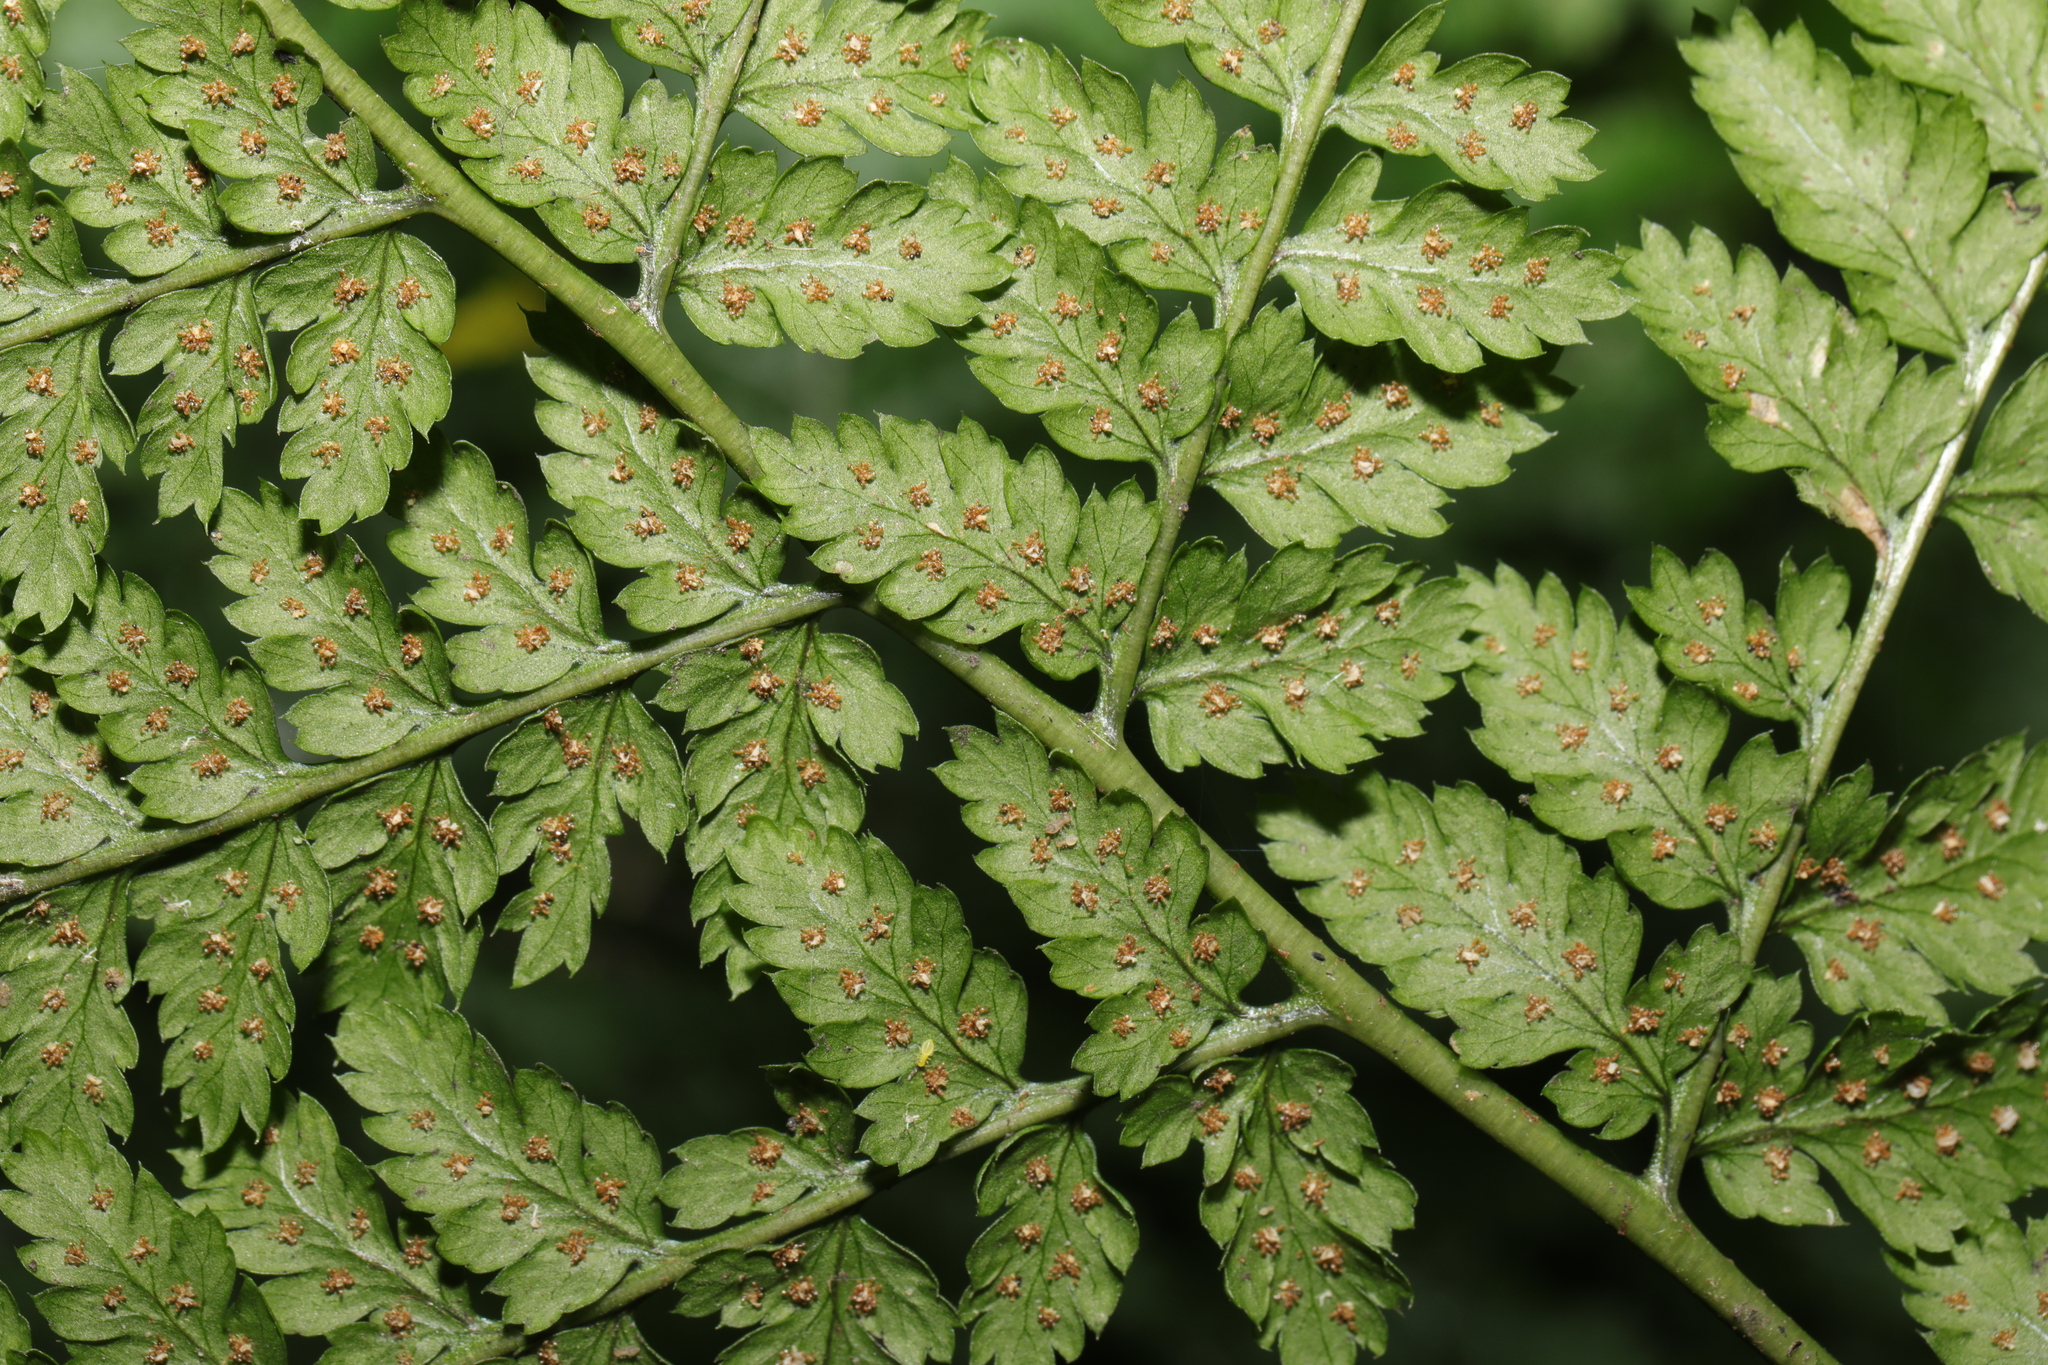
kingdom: Plantae
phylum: Tracheophyta
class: Polypodiopsida
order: Polypodiales
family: Dryopteridaceae
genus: Dryopteris
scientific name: Dryopteris dilatata
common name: Broad buckler-fern
